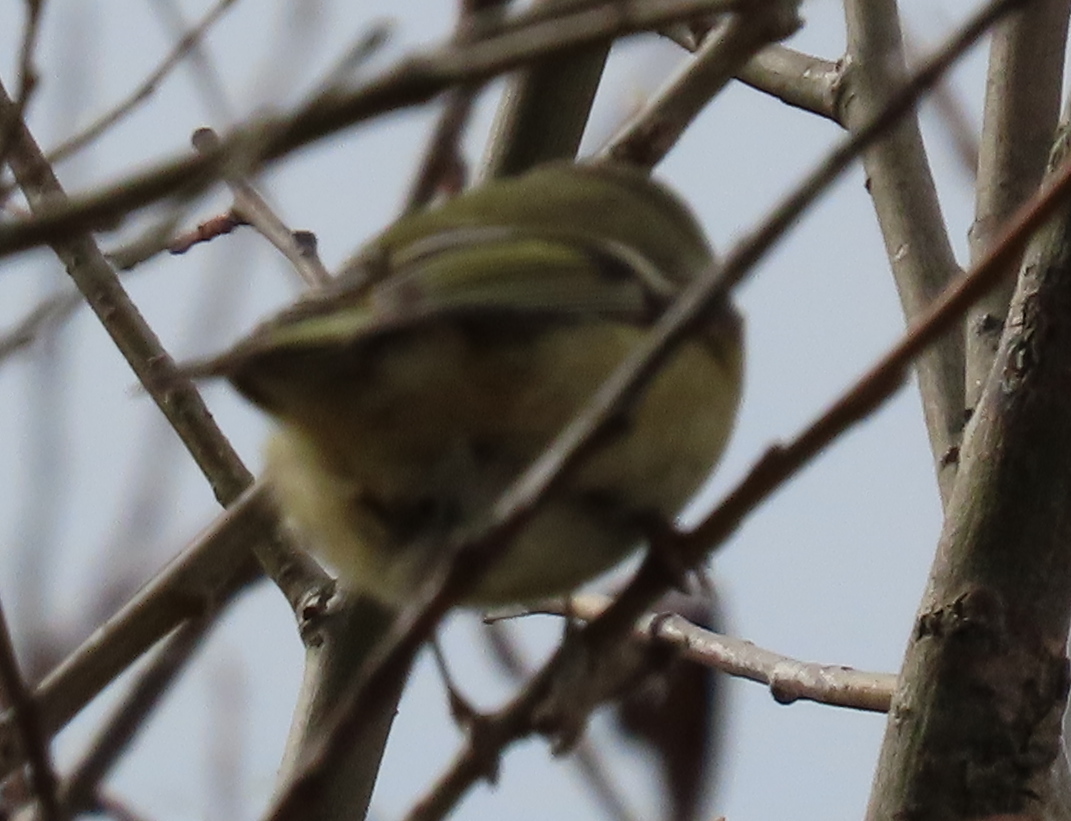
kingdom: Animalia
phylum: Chordata
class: Aves
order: Passeriformes
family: Regulidae
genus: Regulus
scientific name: Regulus calendula
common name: Ruby-crowned kinglet
